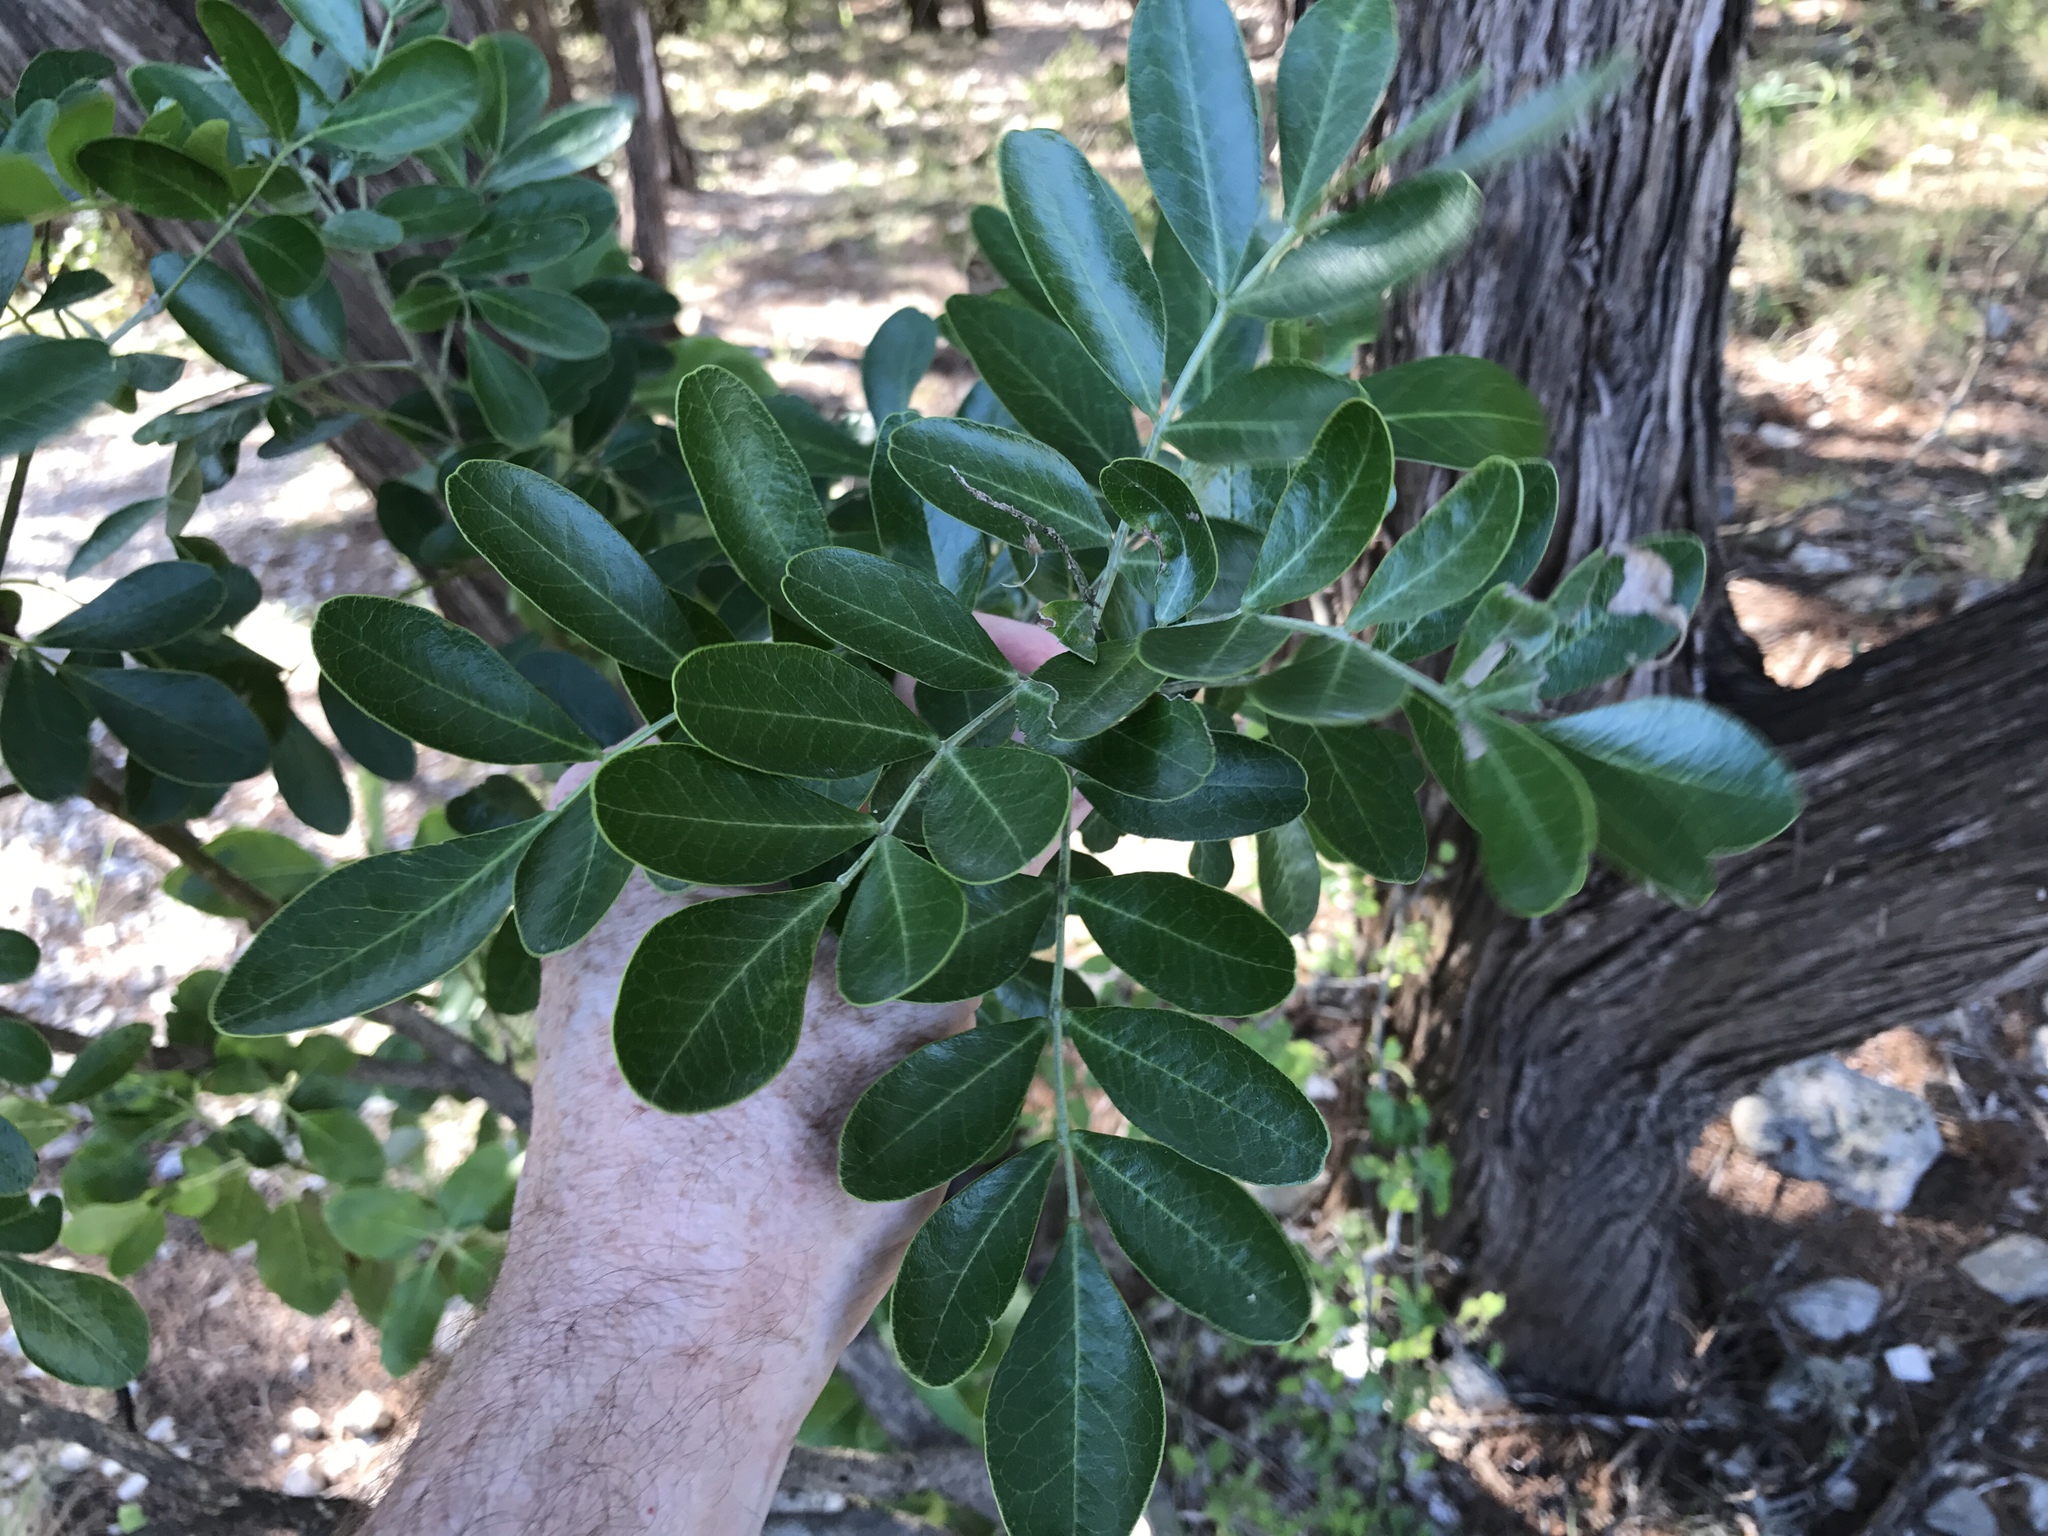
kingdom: Plantae
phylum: Tracheophyta
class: Magnoliopsida
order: Fabales
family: Fabaceae
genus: Dermatophyllum
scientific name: Dermatophyllum secundiflorum
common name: Texas-mountain-laurel
